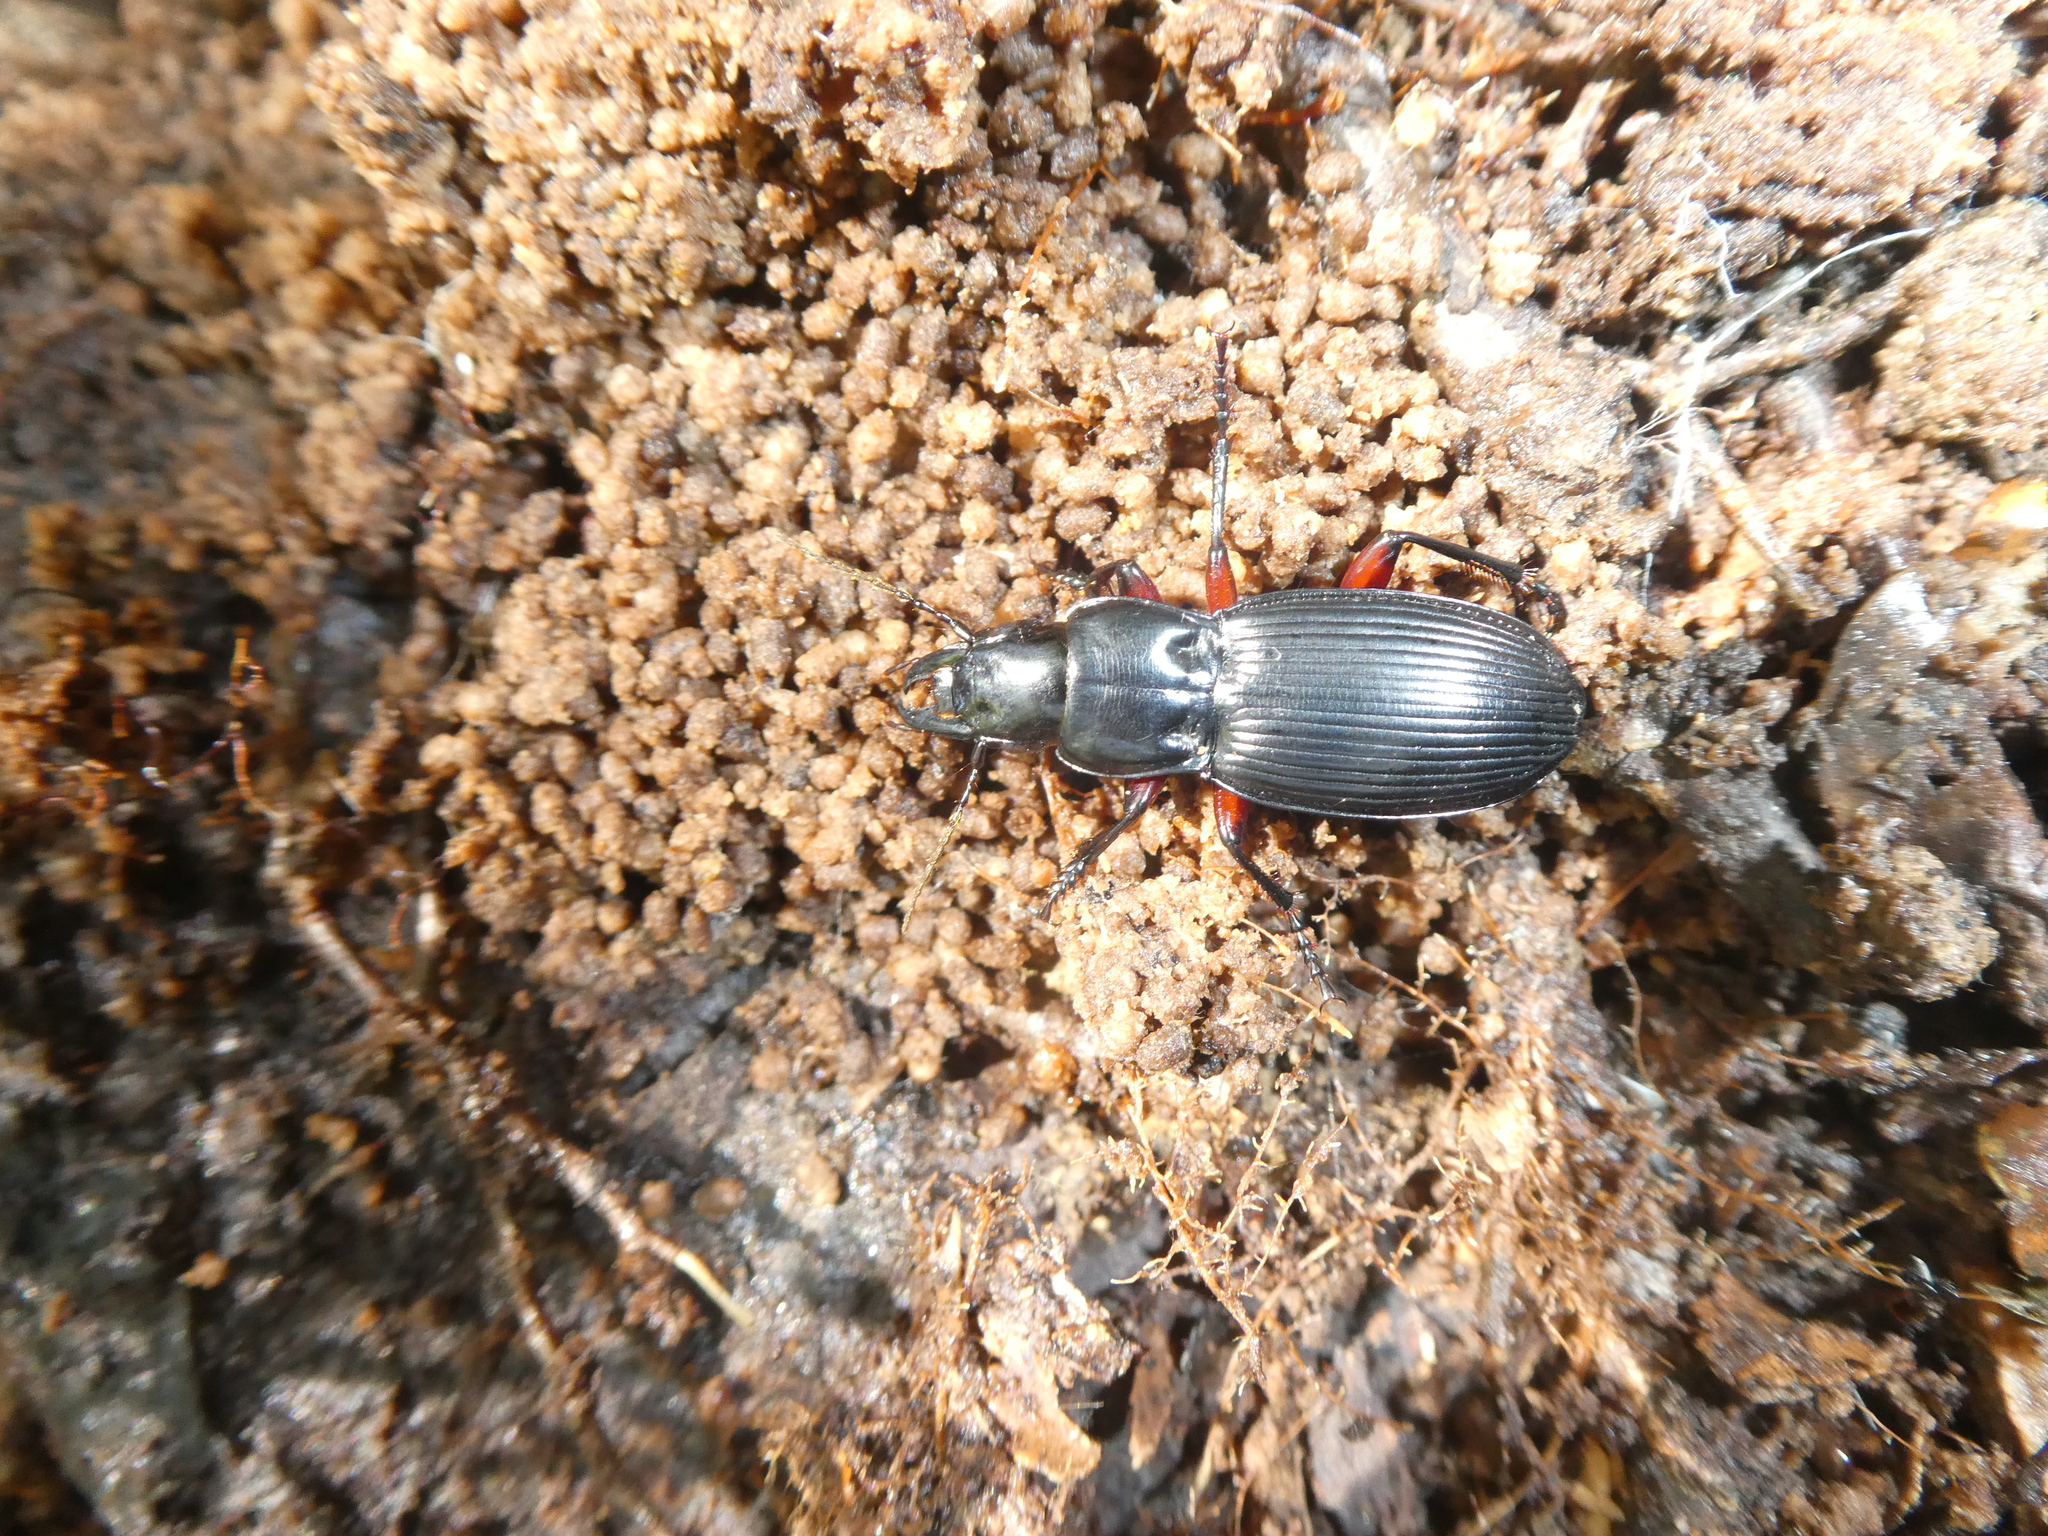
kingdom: Animalia
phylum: Arthropoda
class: Insecta
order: Coleoptera
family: Carabidae
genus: Plocamostethus
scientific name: Plocamostethus planiusculus
